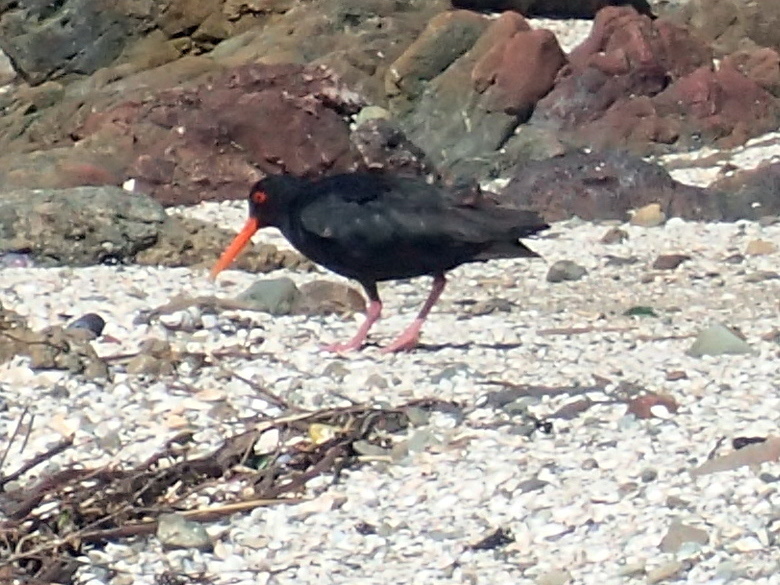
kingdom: Animalia
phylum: Chordata
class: Aves
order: Charadriiformes
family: Haematopodidae
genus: Haematopus
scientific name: Haematopus unicolor
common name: Variable oystercatcher
